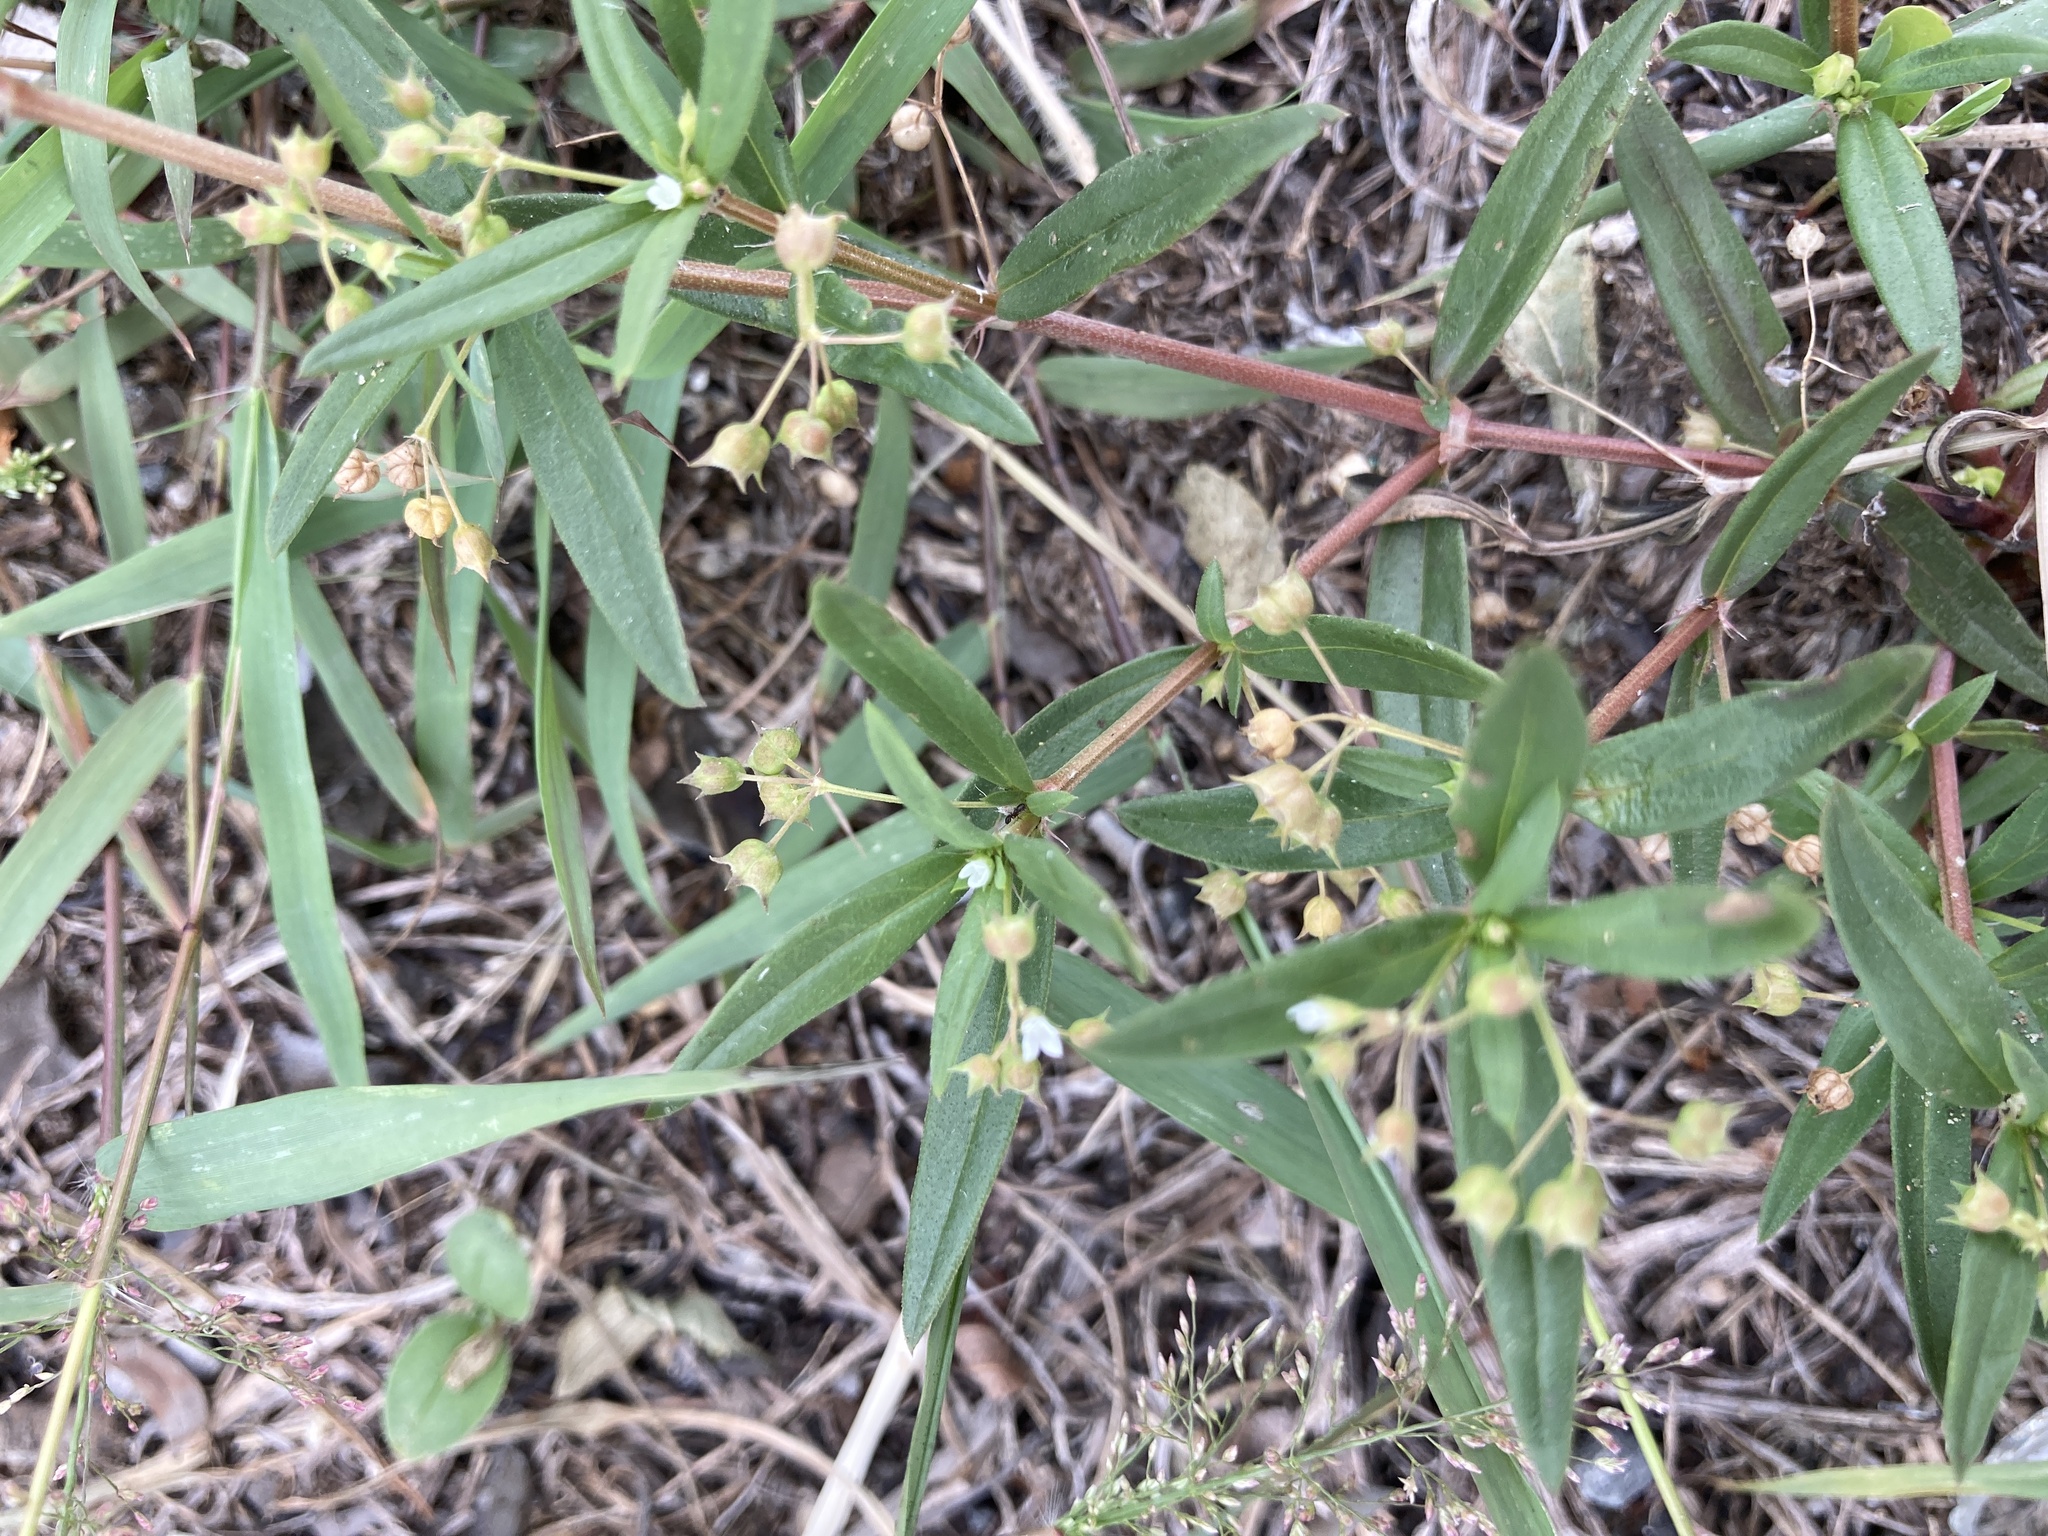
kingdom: Plantae
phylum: Tracheophyta
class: Magnoliopsida
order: Gentianales
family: Rubiaceae
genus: Oldenlandia
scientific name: Oldenlandia corymbosa
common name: Flat-top mille graines
